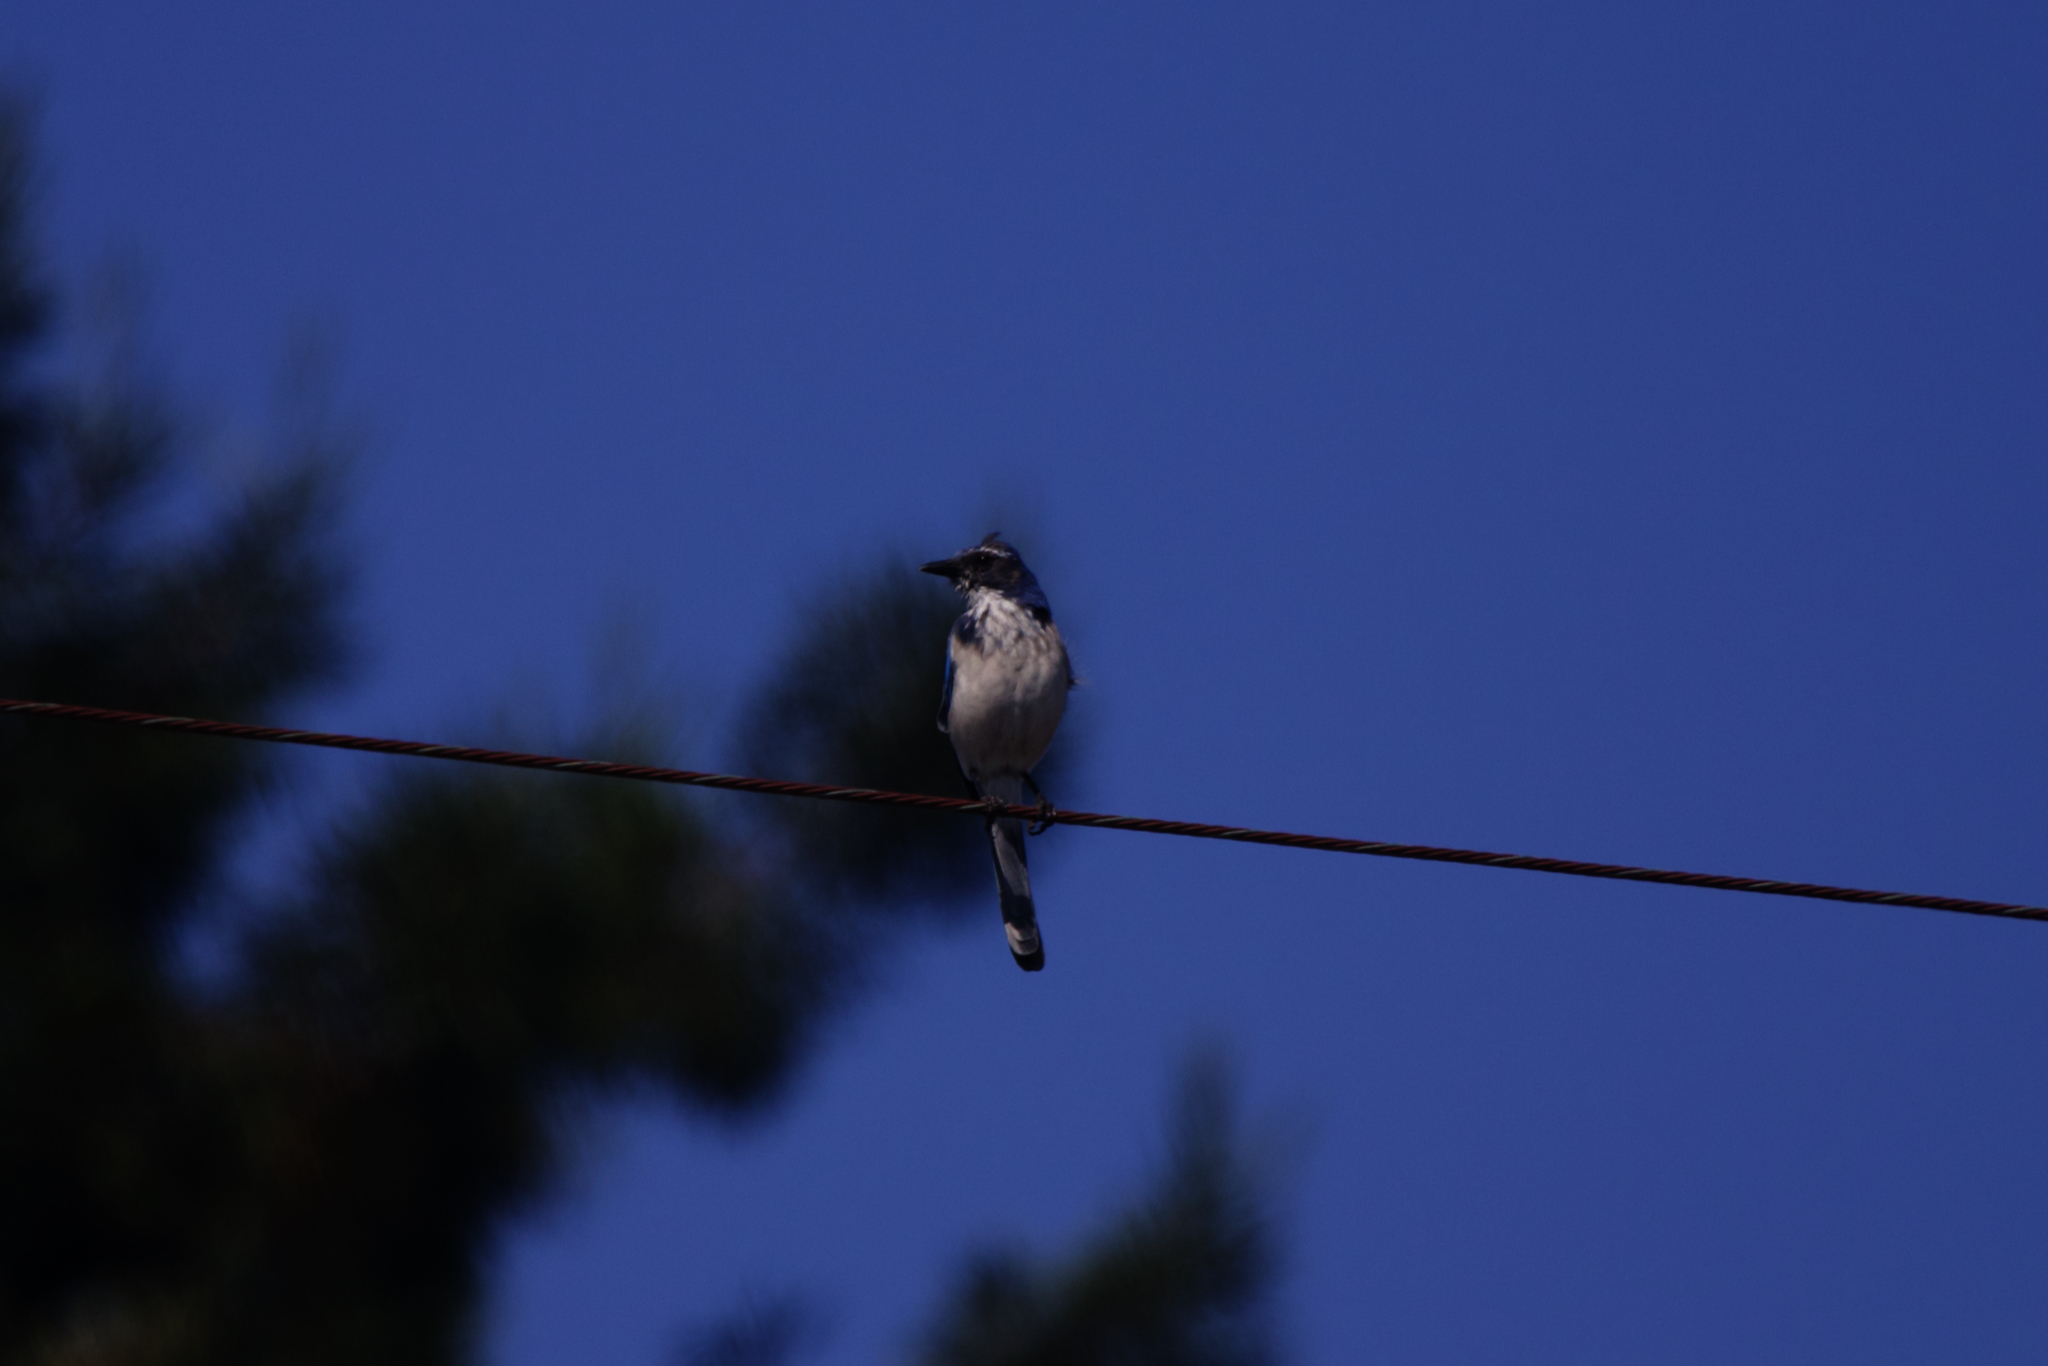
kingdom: Animalia
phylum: Chordata
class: Aves
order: Passeriformes
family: Corvidae
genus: Aphelocoma
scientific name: Aphelocoma californica
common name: California scrub-jay
